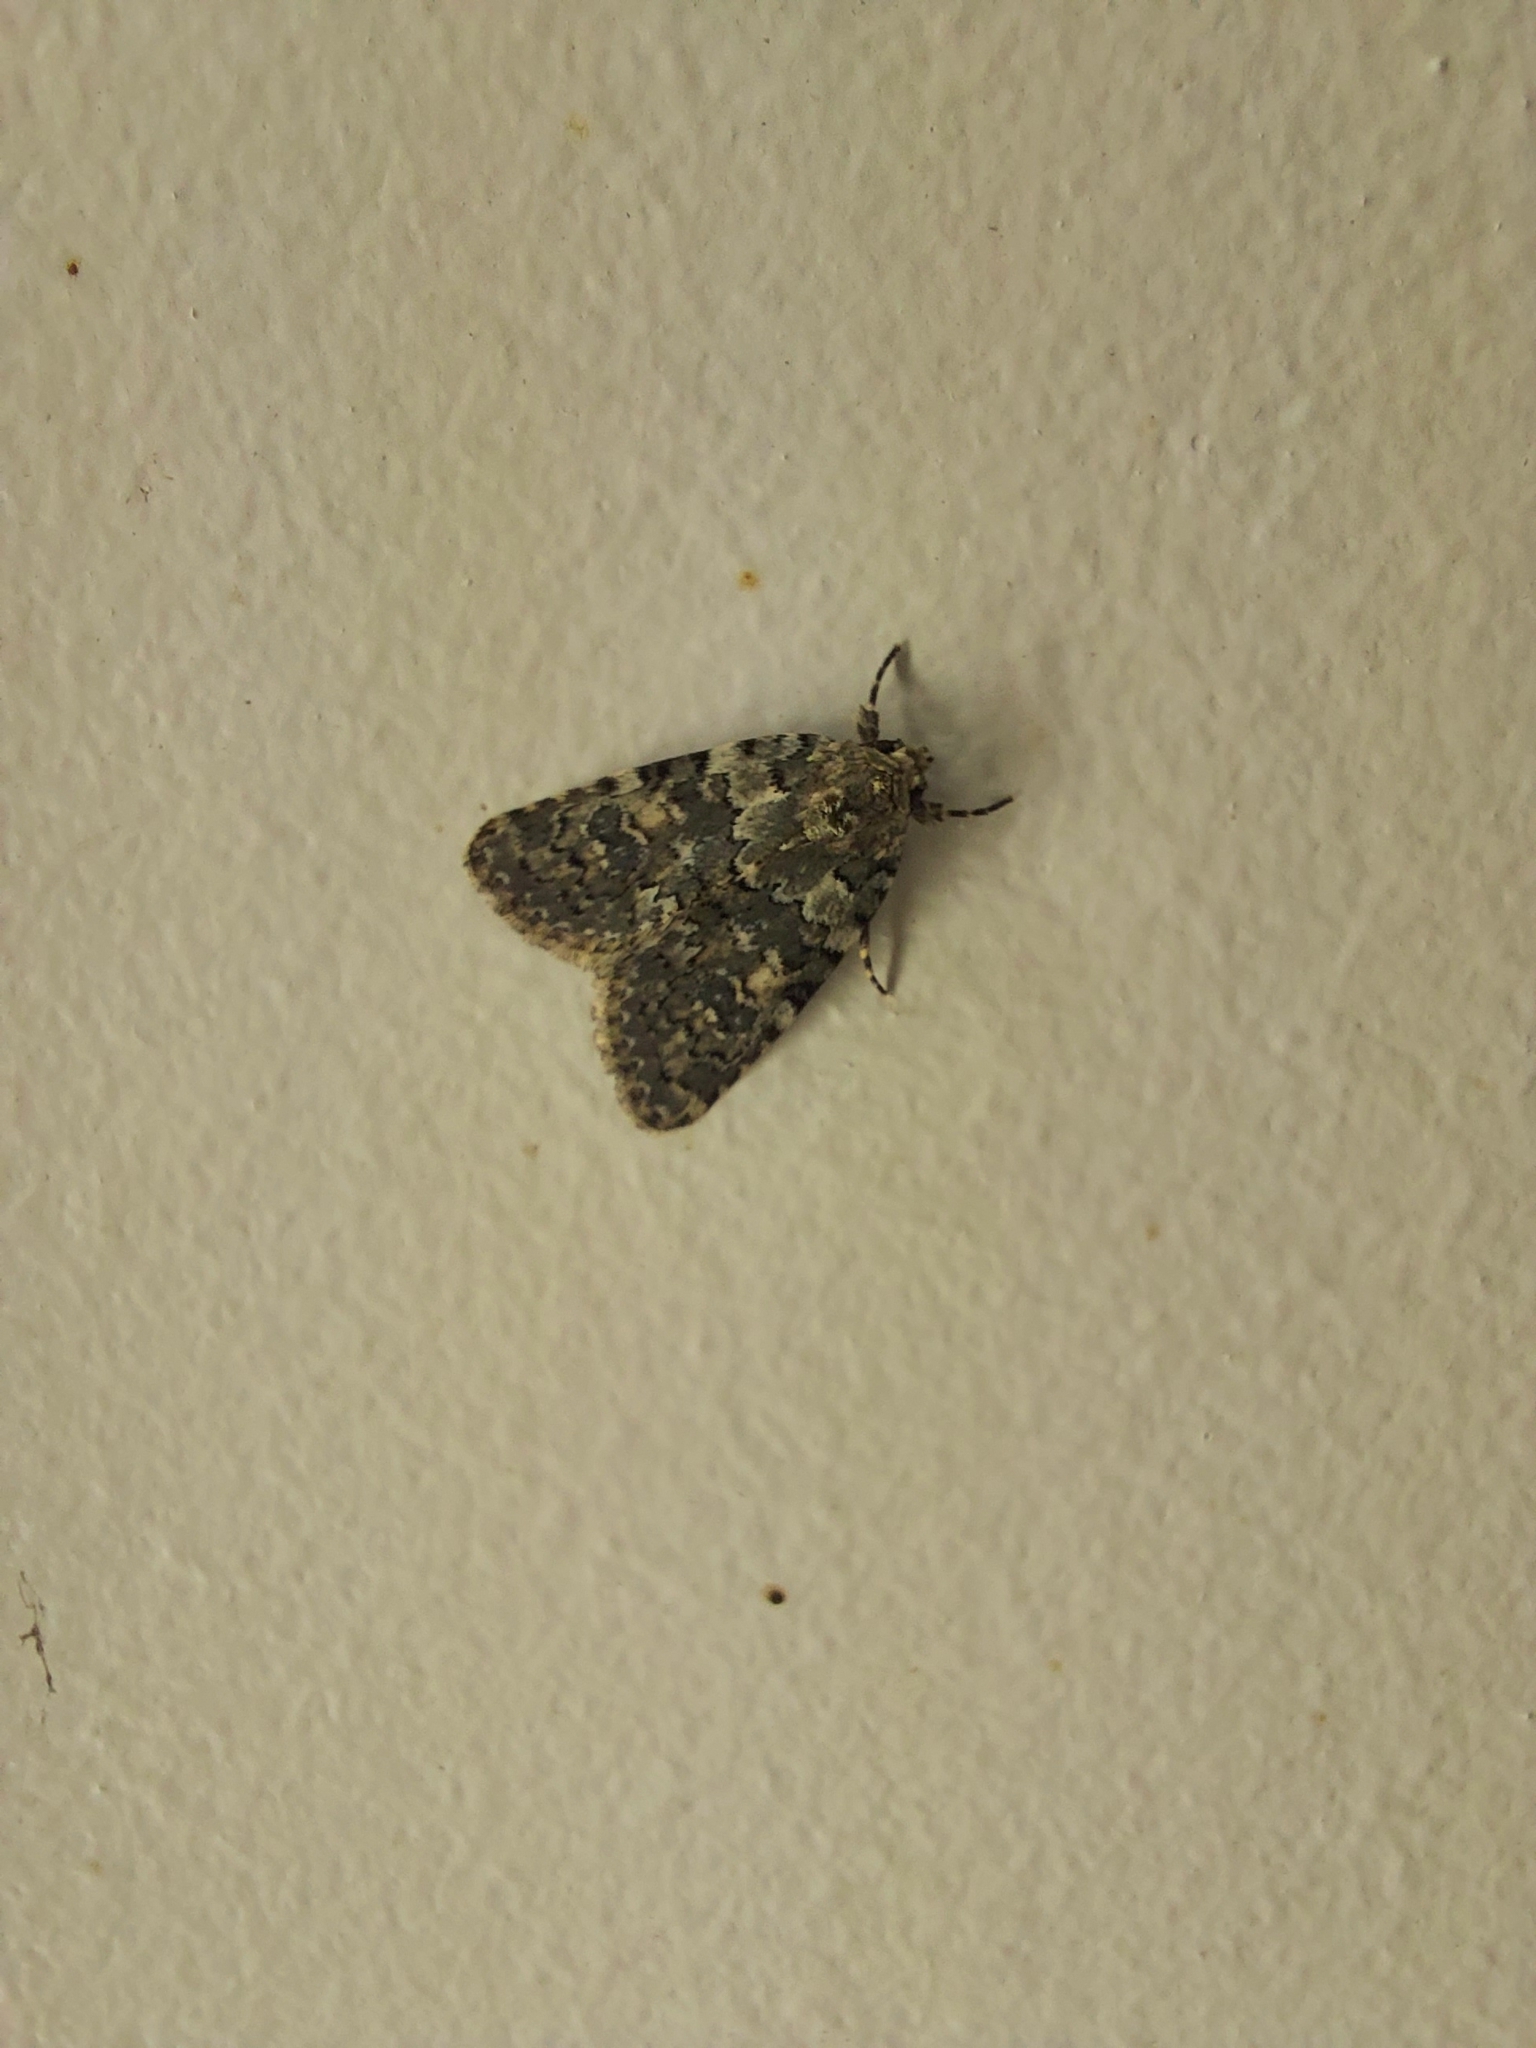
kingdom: Animalia
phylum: Arthropoda
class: Insecta
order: Lepidoptera
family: Noctuidae
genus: Bryophila
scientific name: Bryophila domestica
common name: Marbled beauty
